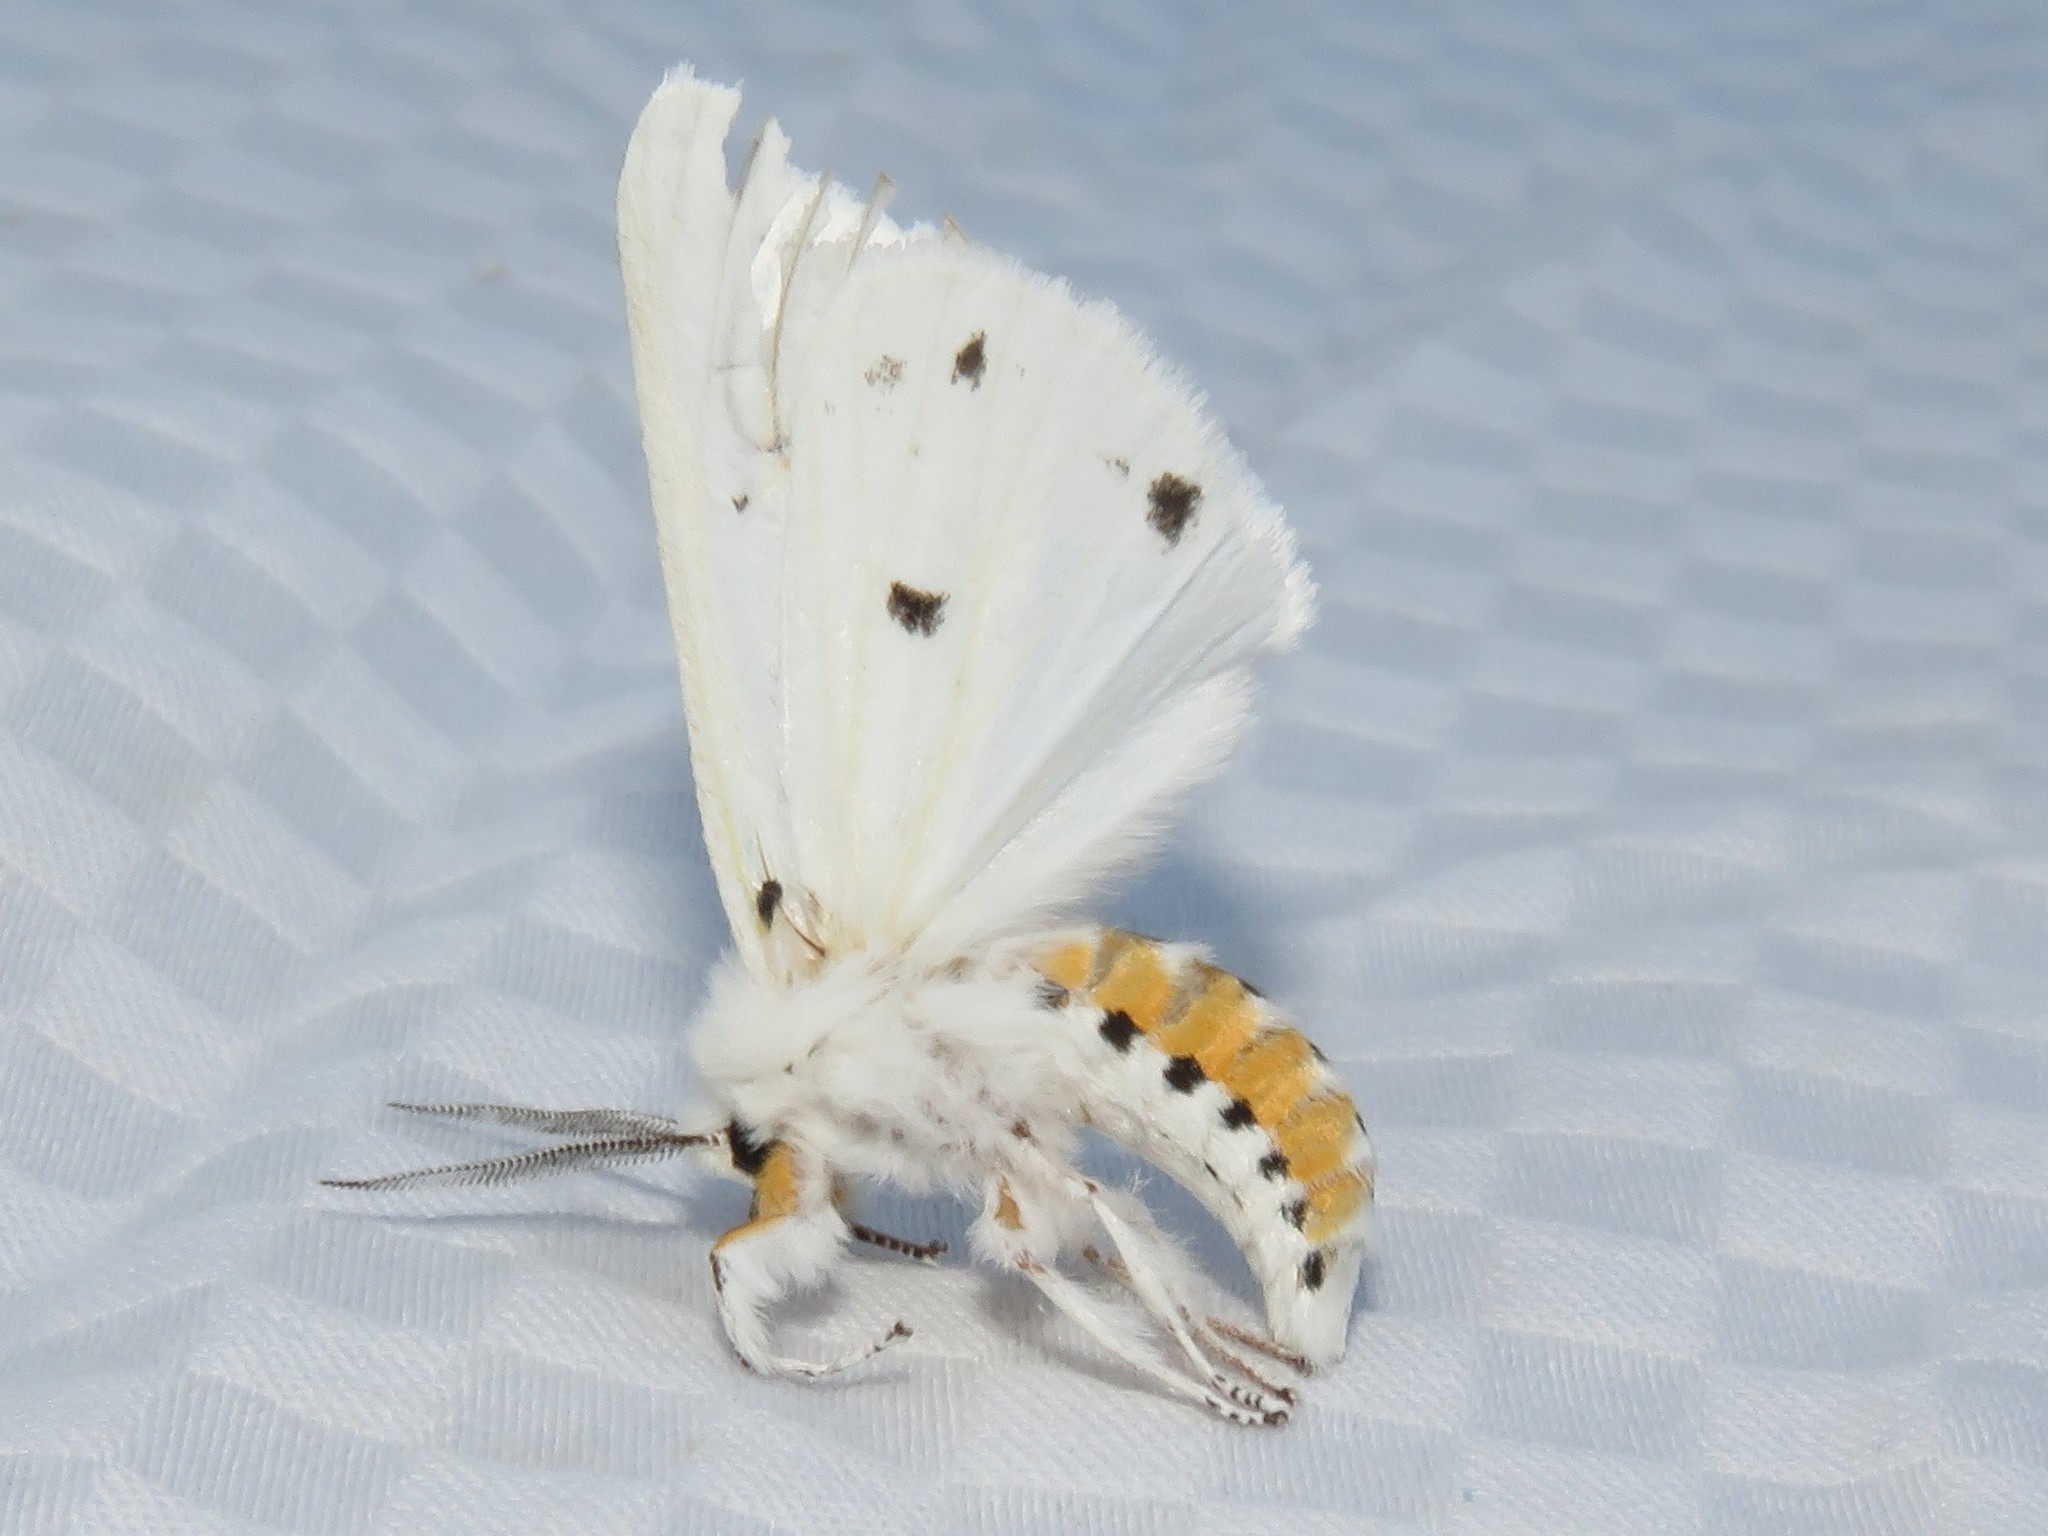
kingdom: Animalia
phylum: Arthropoda
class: Insecta
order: Lepidoptera
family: Erebidae
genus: Spilosoma
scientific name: Spilosoma virginica
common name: Virginia tiger moth
